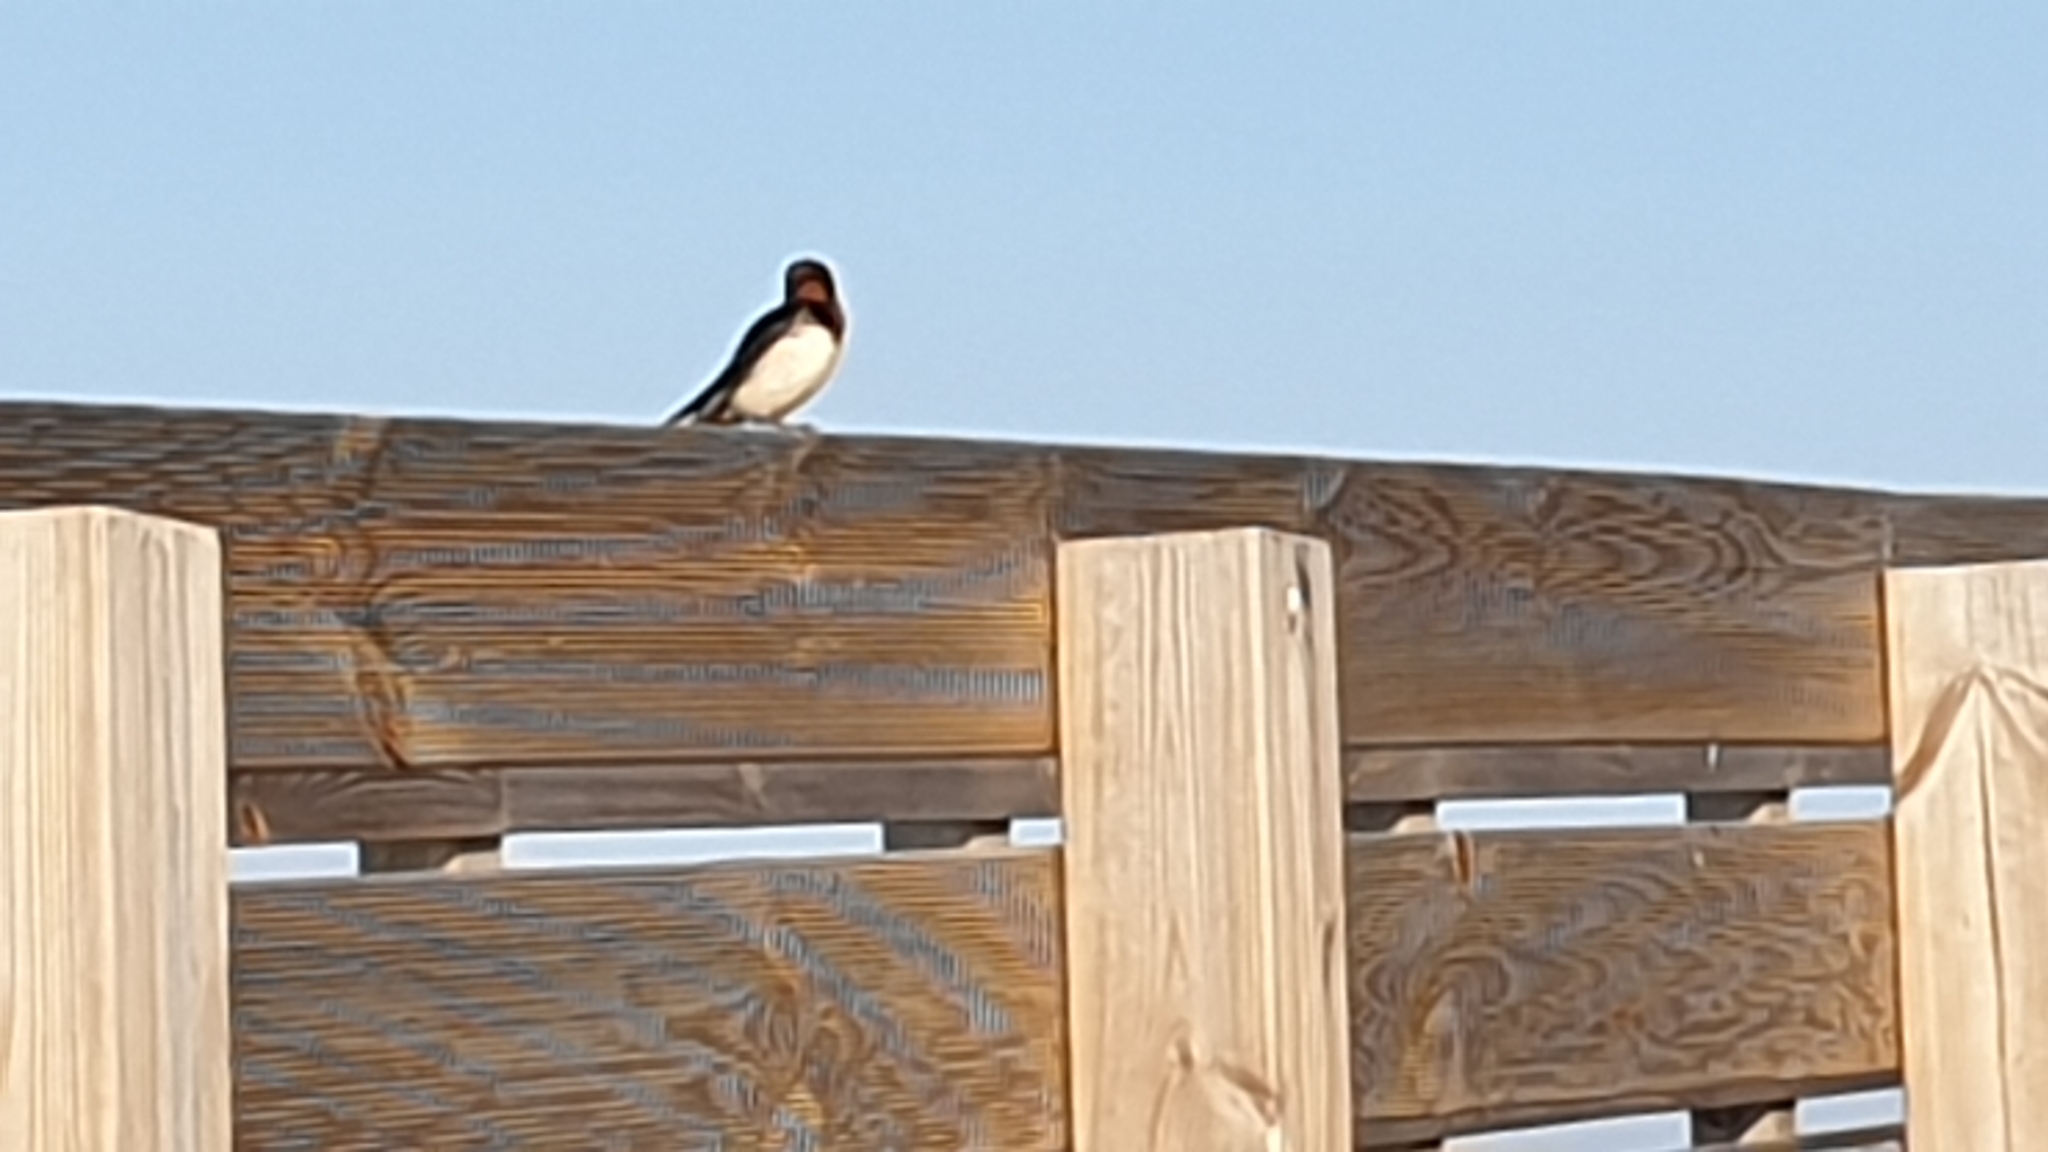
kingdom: Animalia
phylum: Chordata
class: Aves
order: Passeriformes
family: Hirundinidae
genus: Hirundo
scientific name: Hirundo rustica
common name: Barn swallow
